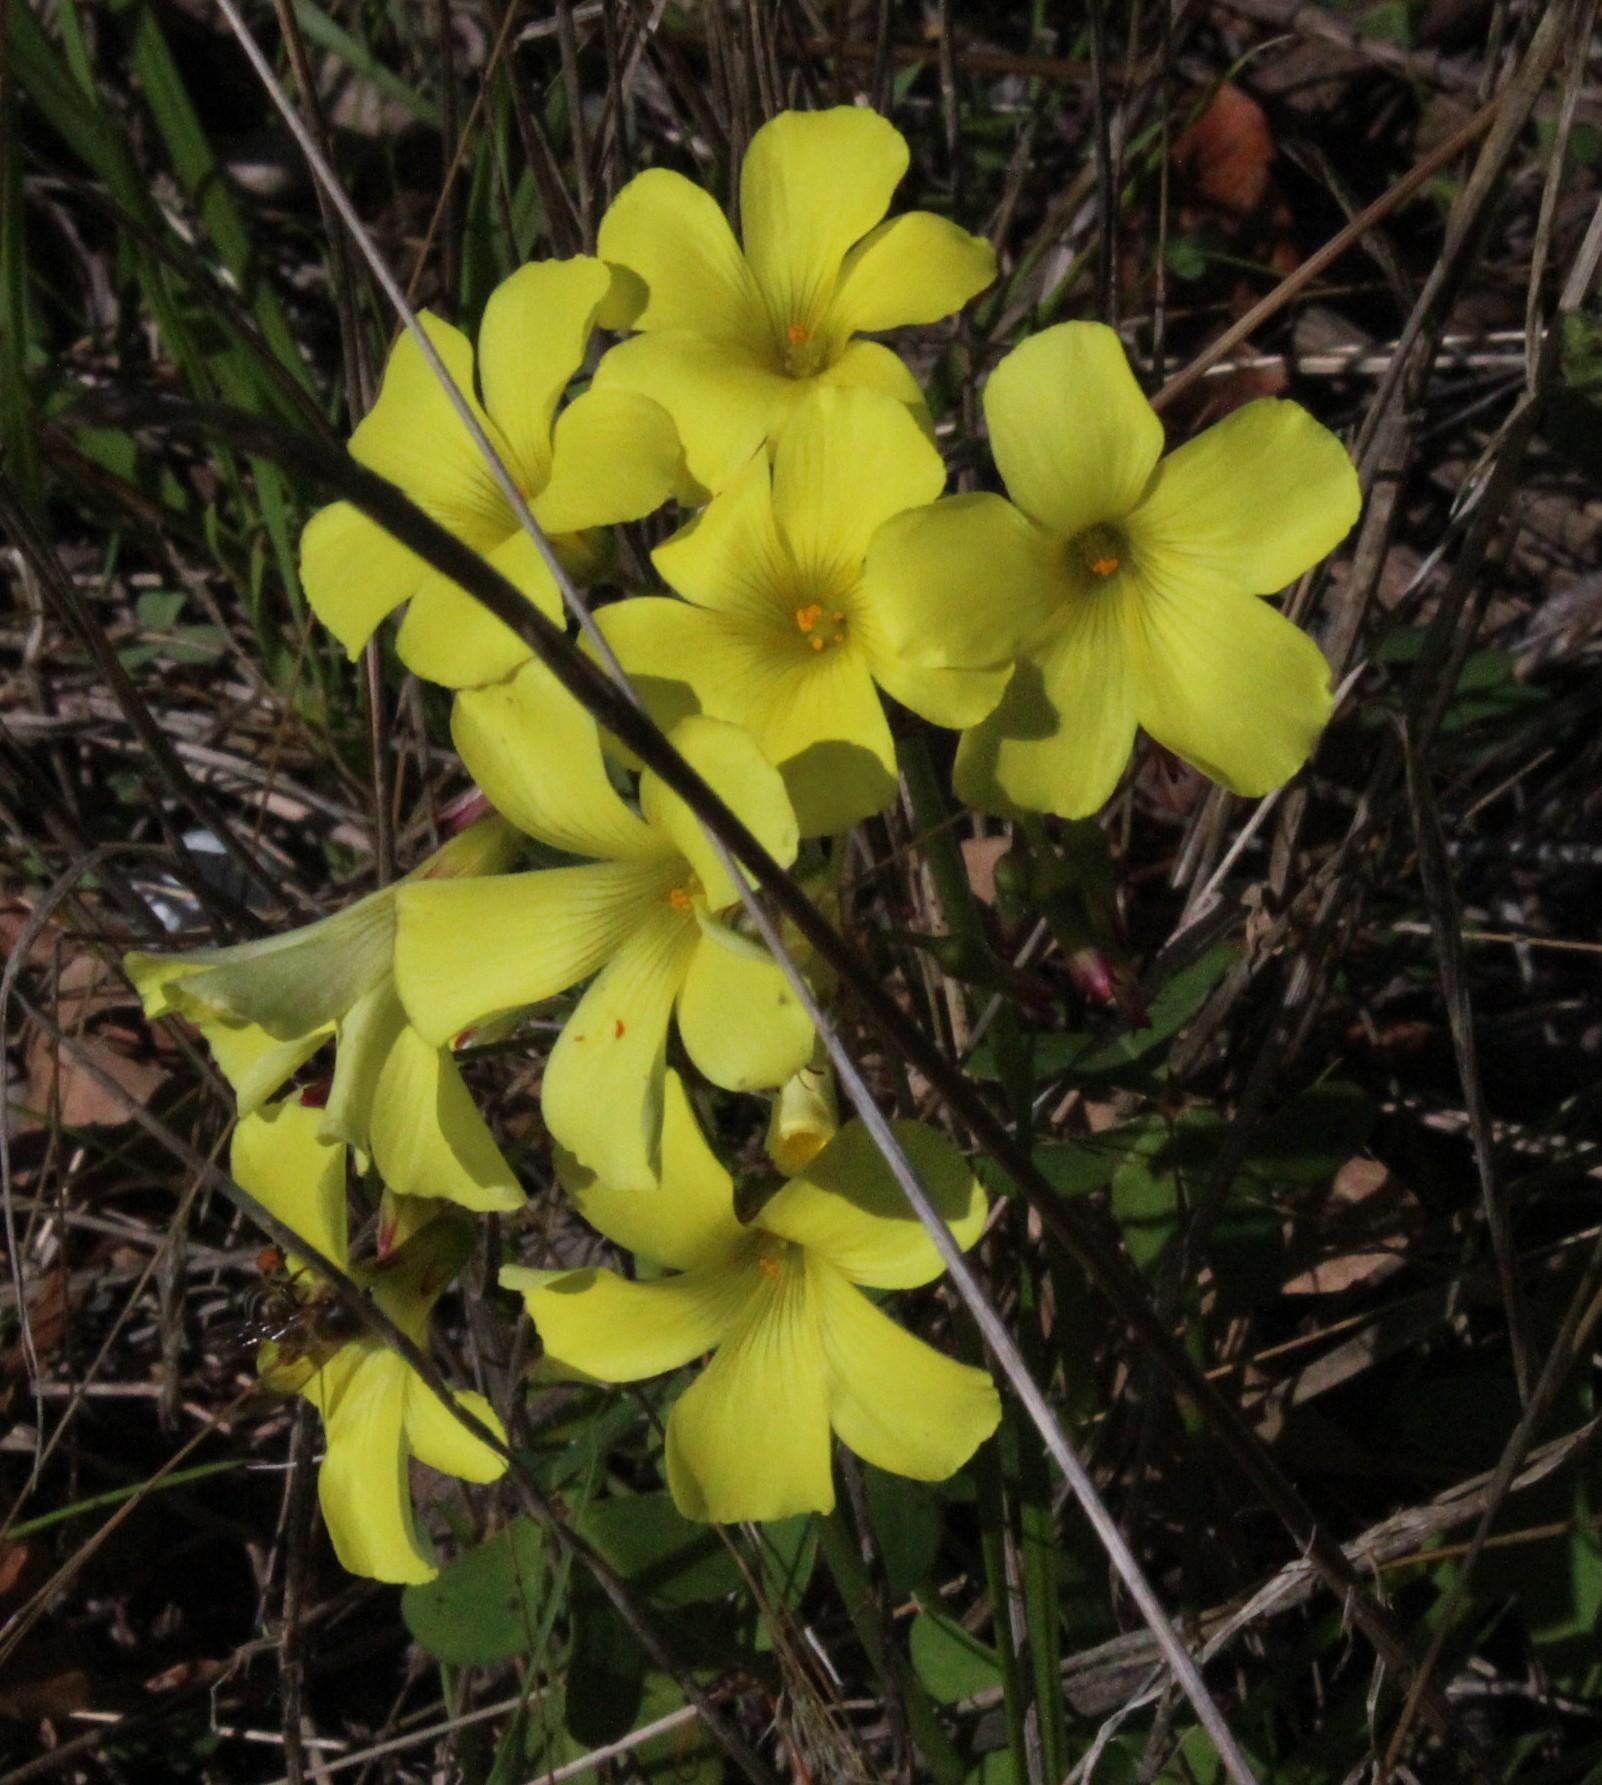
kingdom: Plantae
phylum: Tracheophyta
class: Magnoliopsida
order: Oxalidales
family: Oxalidaceae
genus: Oxalis
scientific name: Oxalis pes-caprae
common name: Bermuda-buttercup
